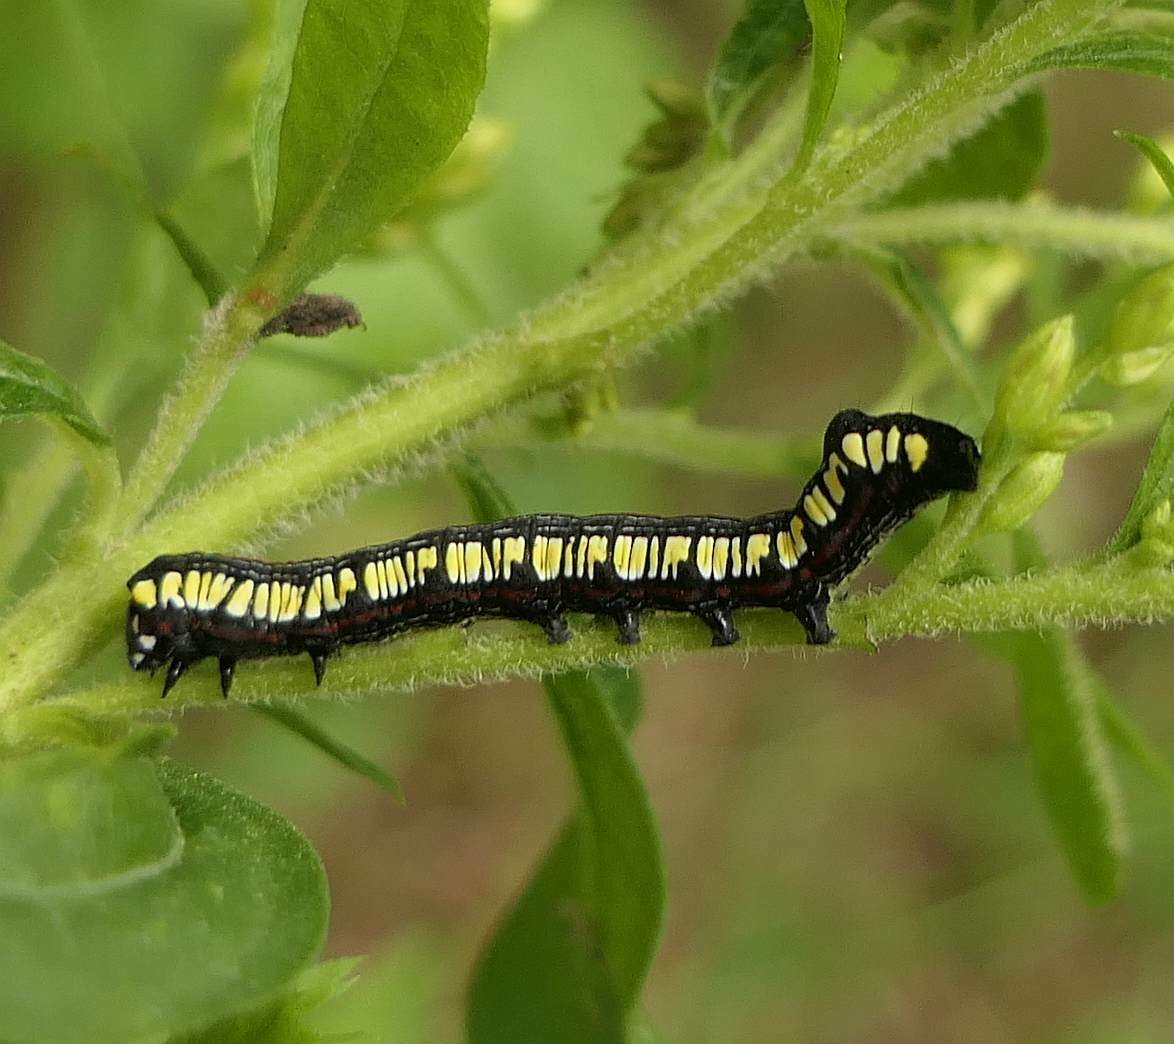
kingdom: Animalia
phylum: Arthropoda
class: Insecta
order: Lepidoptera
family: Noctuidae
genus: Cucullia
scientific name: Cucullia convexipennis
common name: Brown-hooded owlet
